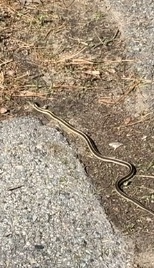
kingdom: Animalia
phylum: Chordata
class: Squamata
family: Colubridae
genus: Thamnophis
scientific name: Thamnophis sirtalis
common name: Common garter snake
